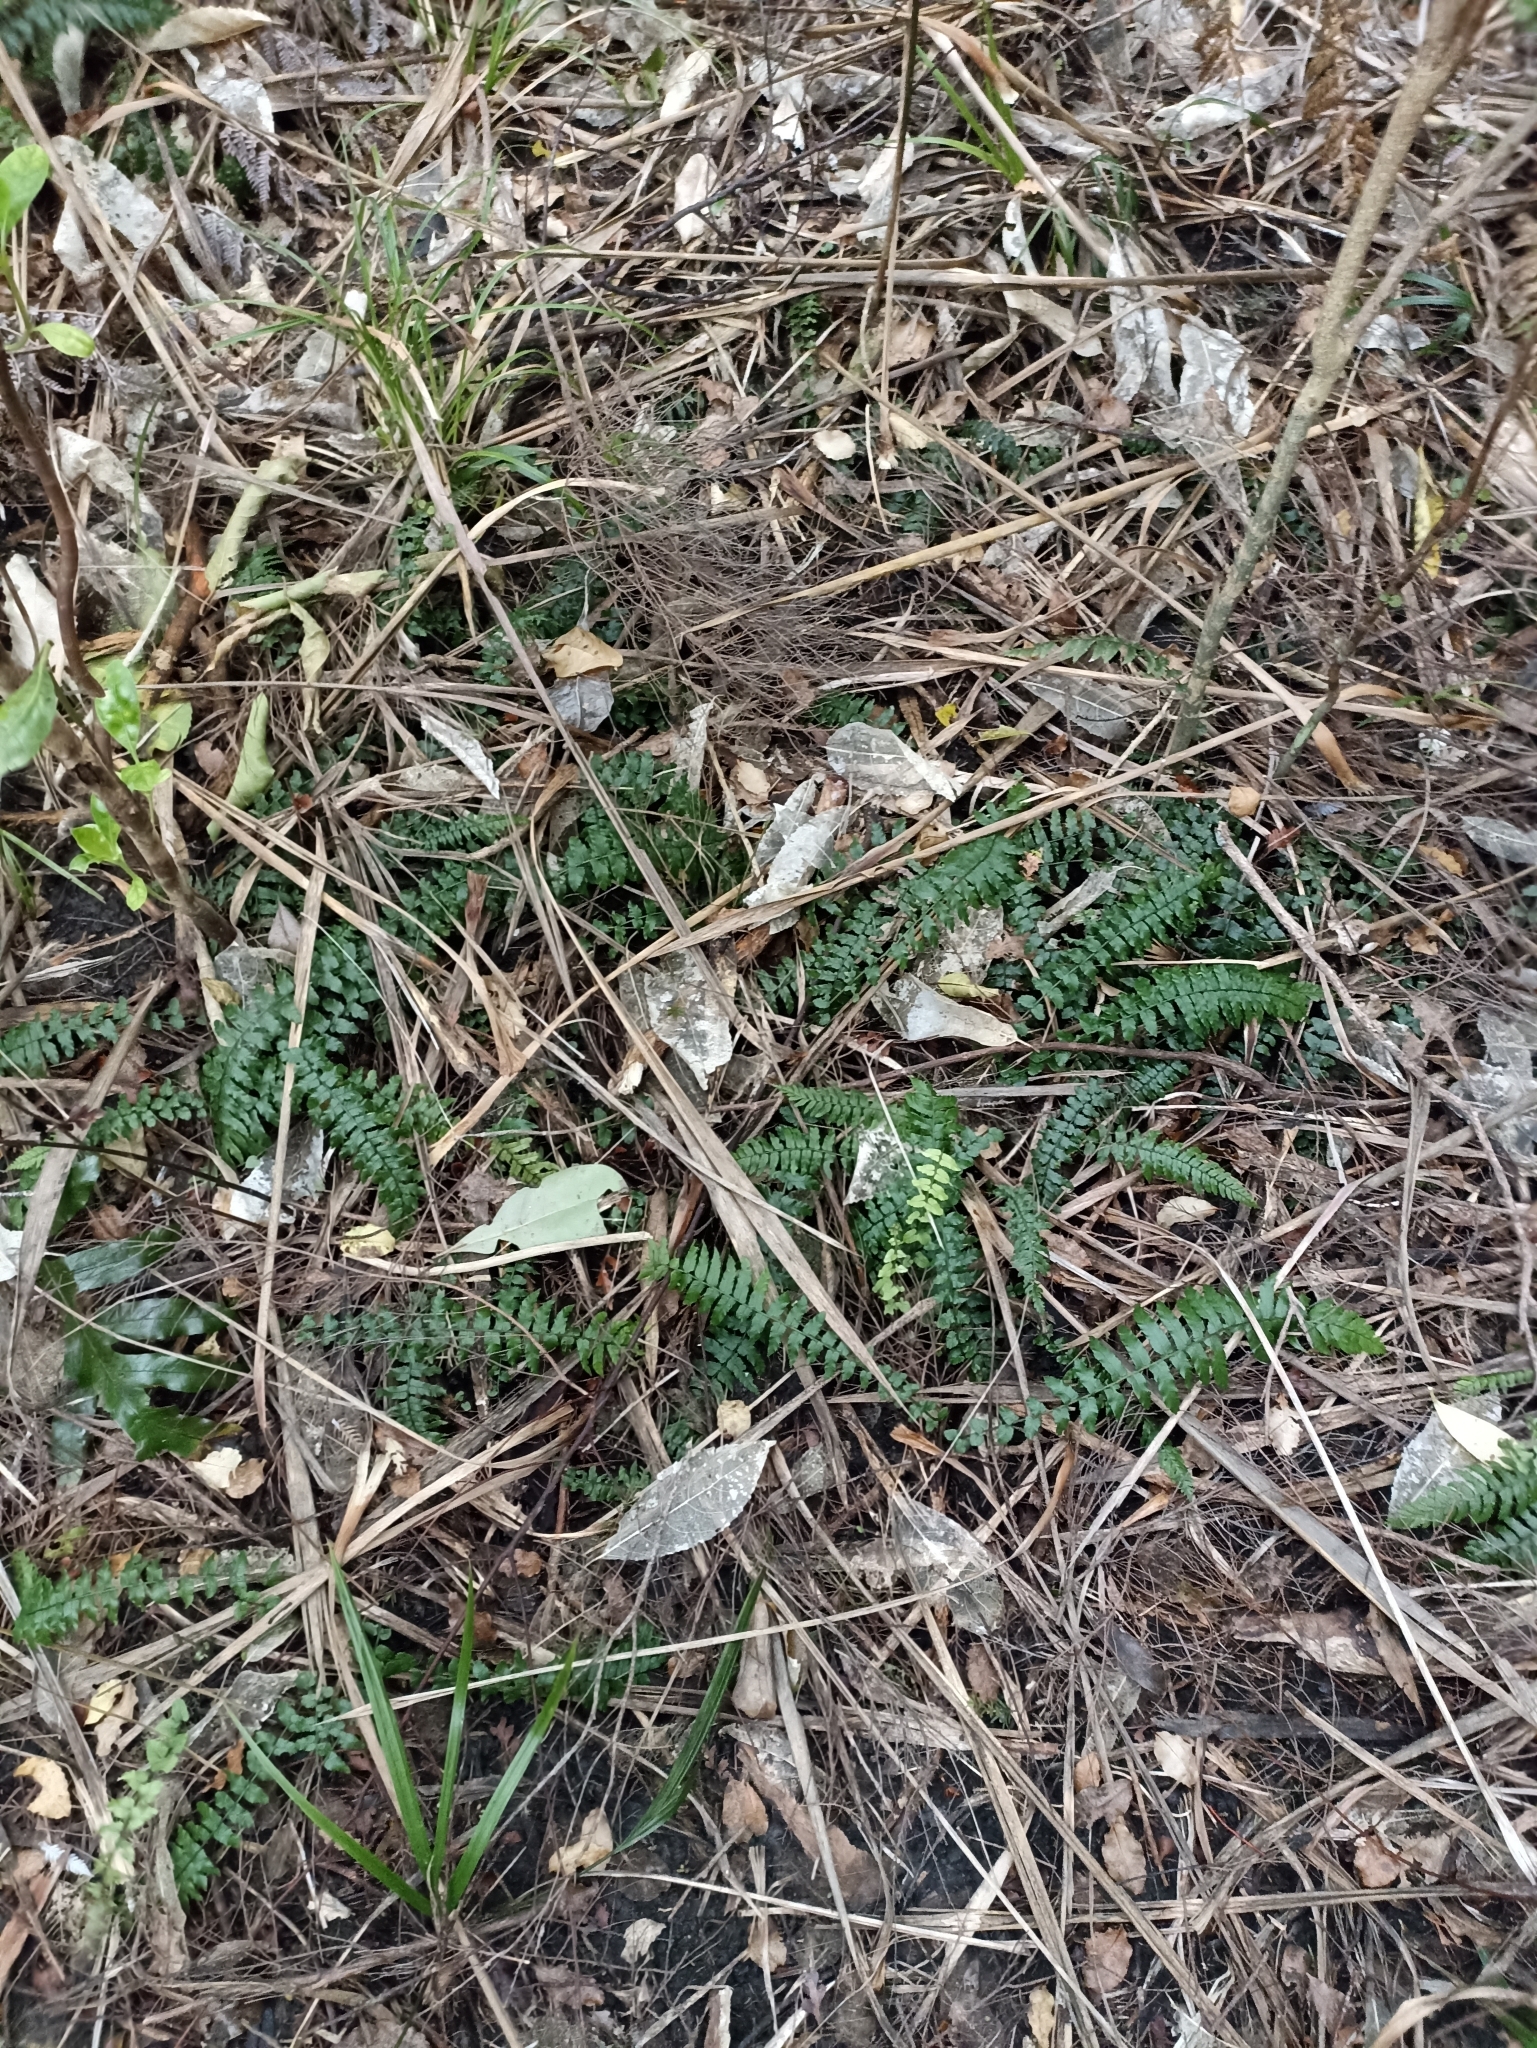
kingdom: Plantae
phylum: Tracheophyta
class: Polypodiopsida
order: Polypodiales
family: Blechnaceae
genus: Icarus
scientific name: Icarus filiformis
